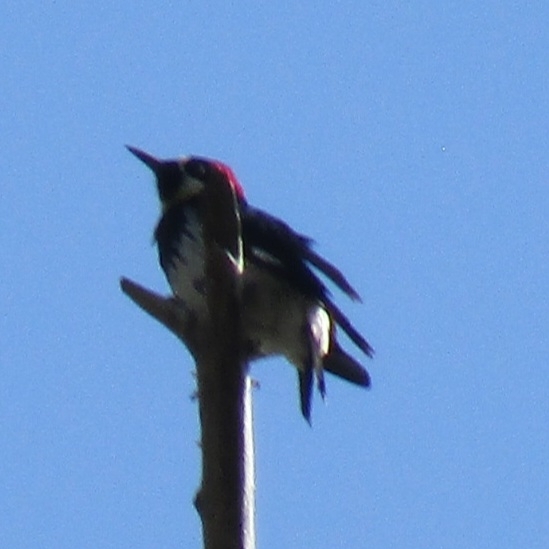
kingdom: Animalia
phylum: Chordata
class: Aves
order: Piciformes
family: Picidae
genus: Melanerpes
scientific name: Melanerpes formicivorus
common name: Acorn woodpecker
